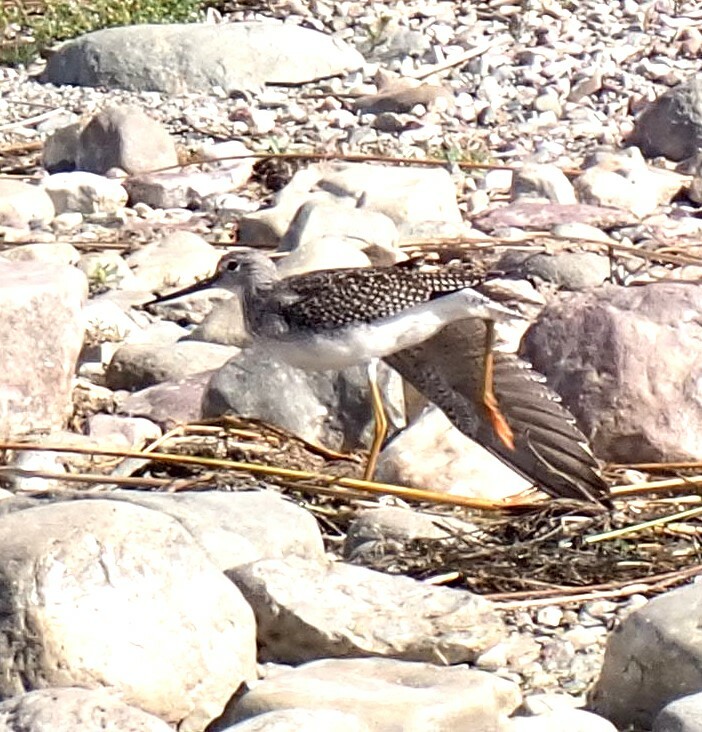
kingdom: Animalia
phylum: Chordata
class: Aves
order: Charadriiformes
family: Scolopacidae
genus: Tringa
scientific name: Tringa melanoleuca
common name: Greater yellowlegs
